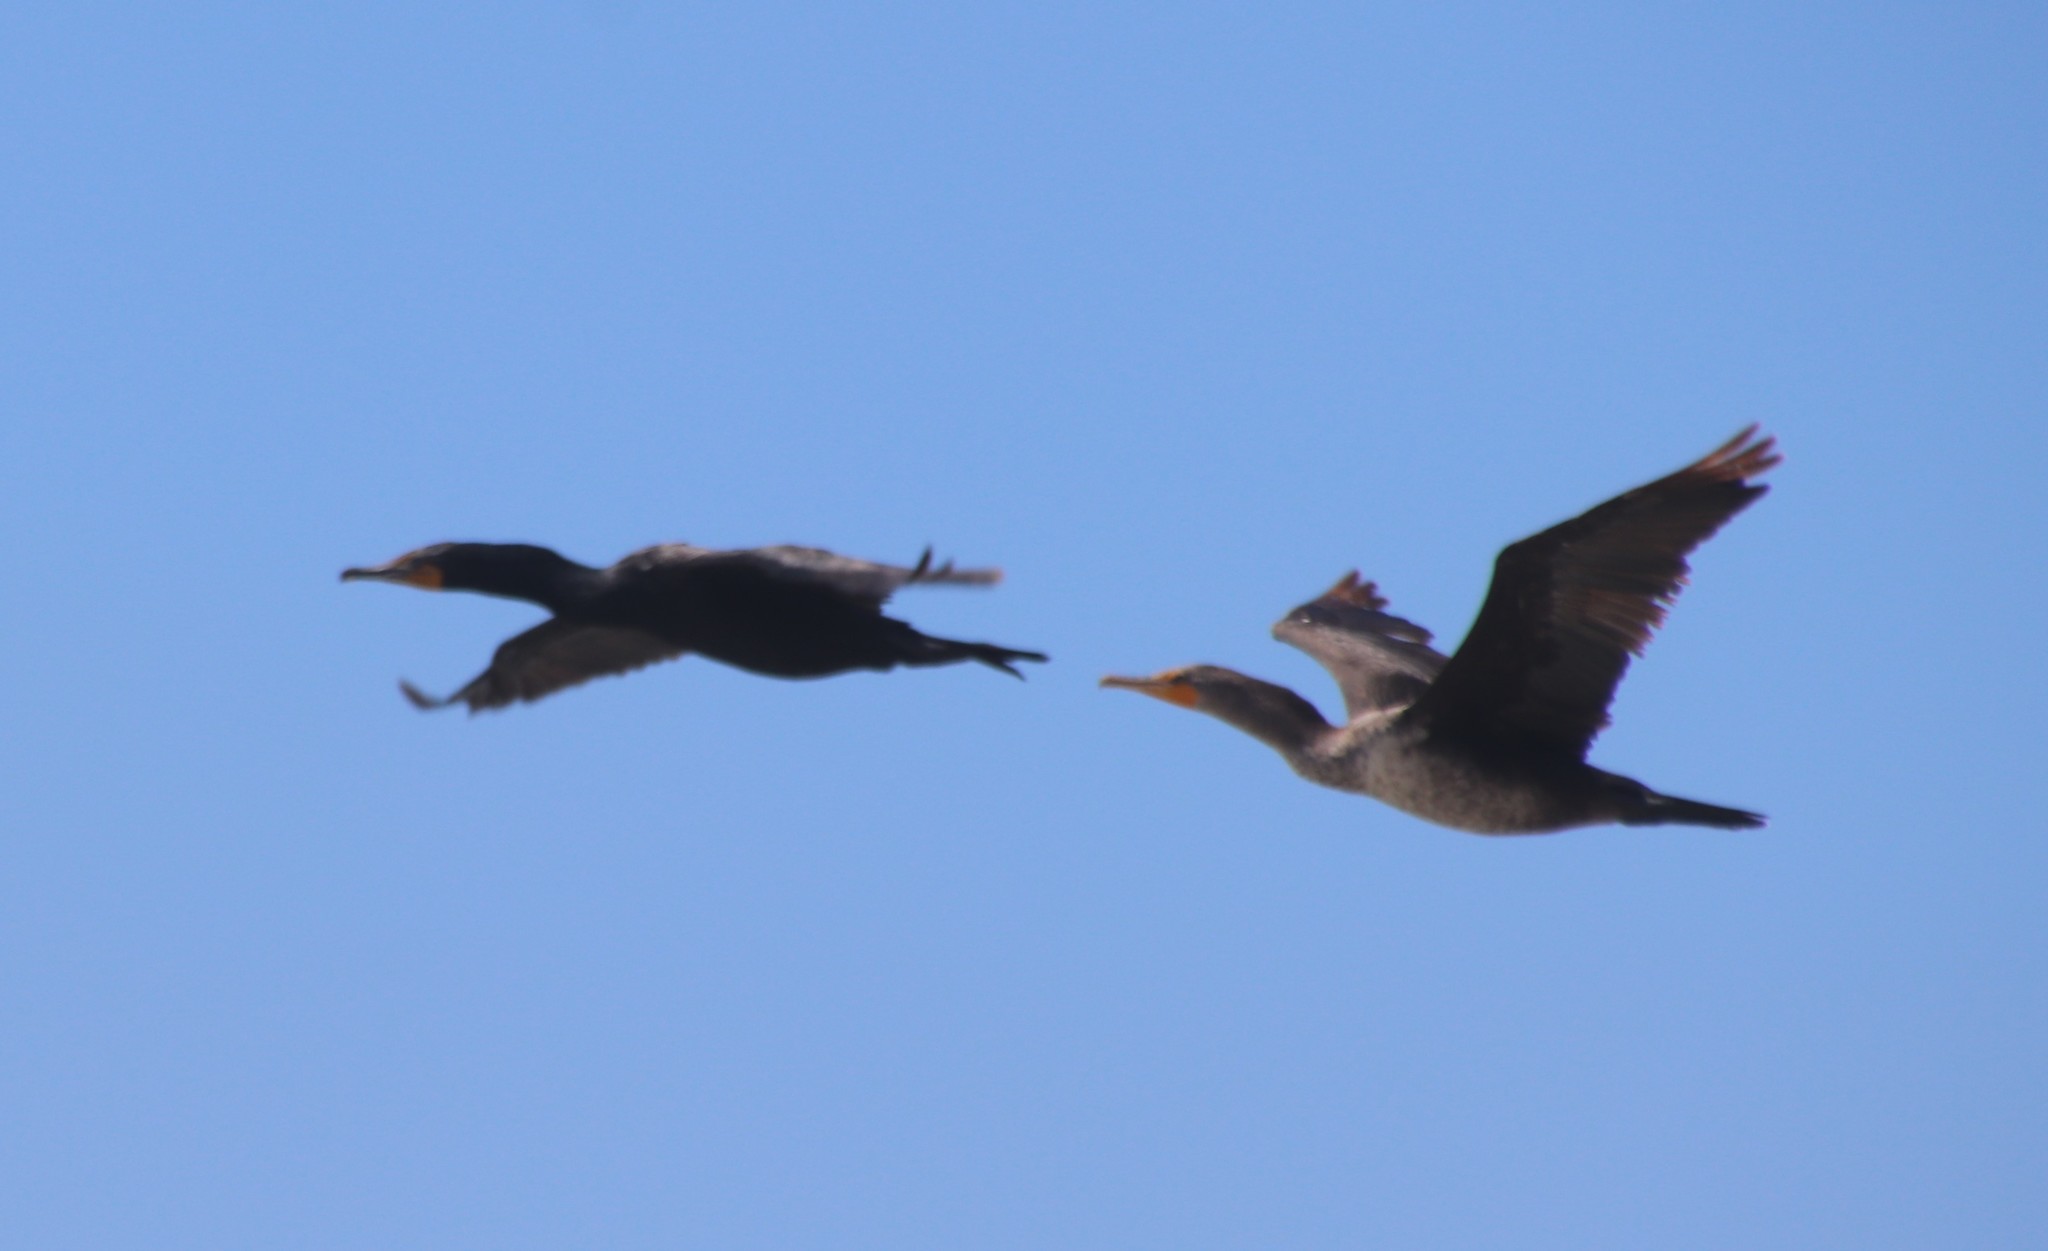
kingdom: Animalia
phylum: Chordata
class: Aves
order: Suliformes
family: Phalacrocoracidae
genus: Phalacrocorax
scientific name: Phalacrocorax auritus
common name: Double-crested cormorant
